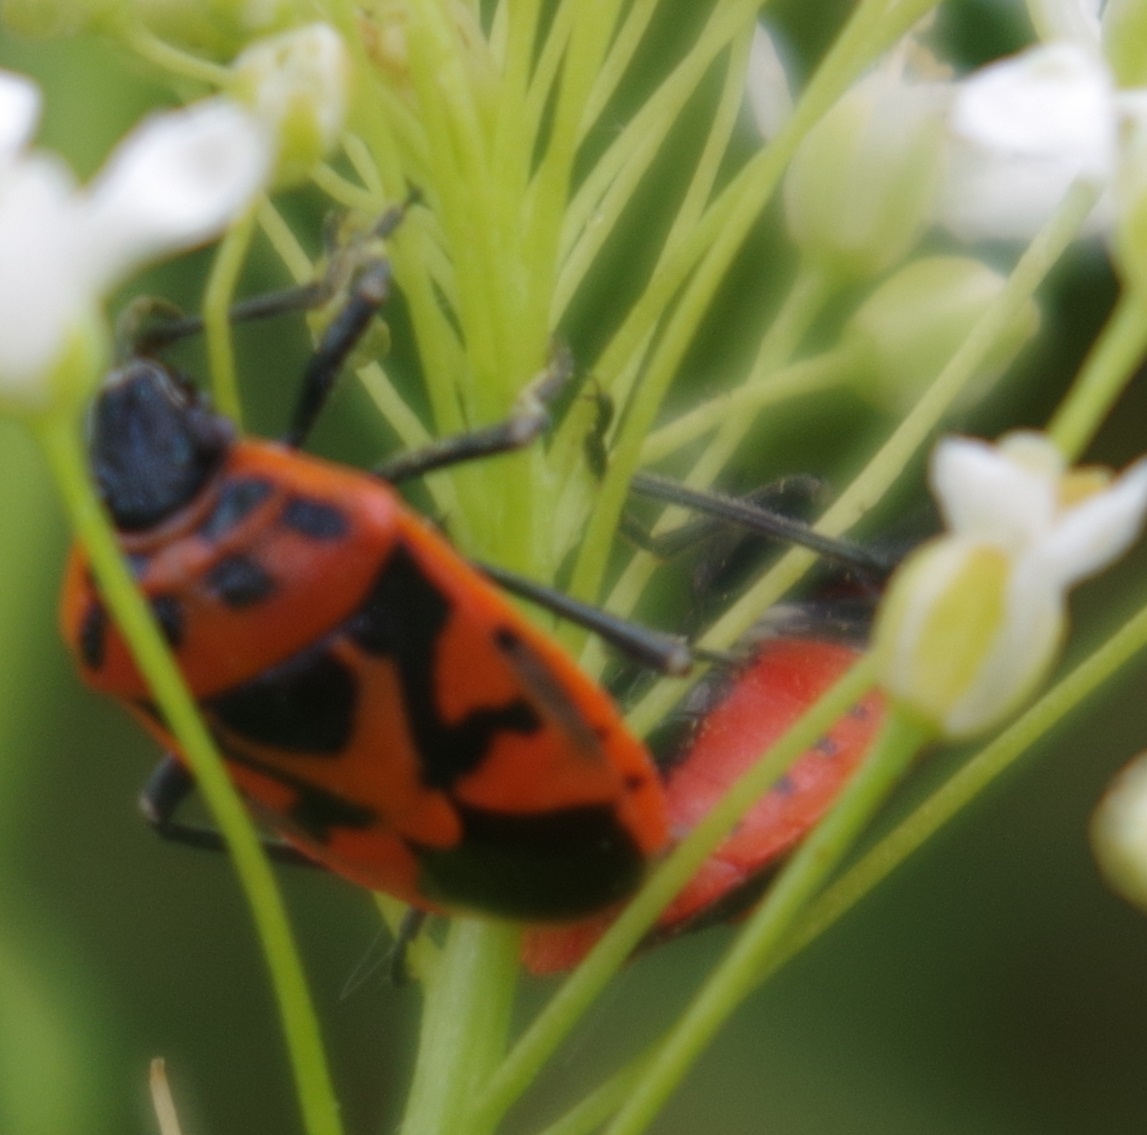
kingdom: Animalia
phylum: Arthropoda
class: Insecta
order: Hemiptera
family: Pentatomidae
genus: Eurydema
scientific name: Eurydema ornata
